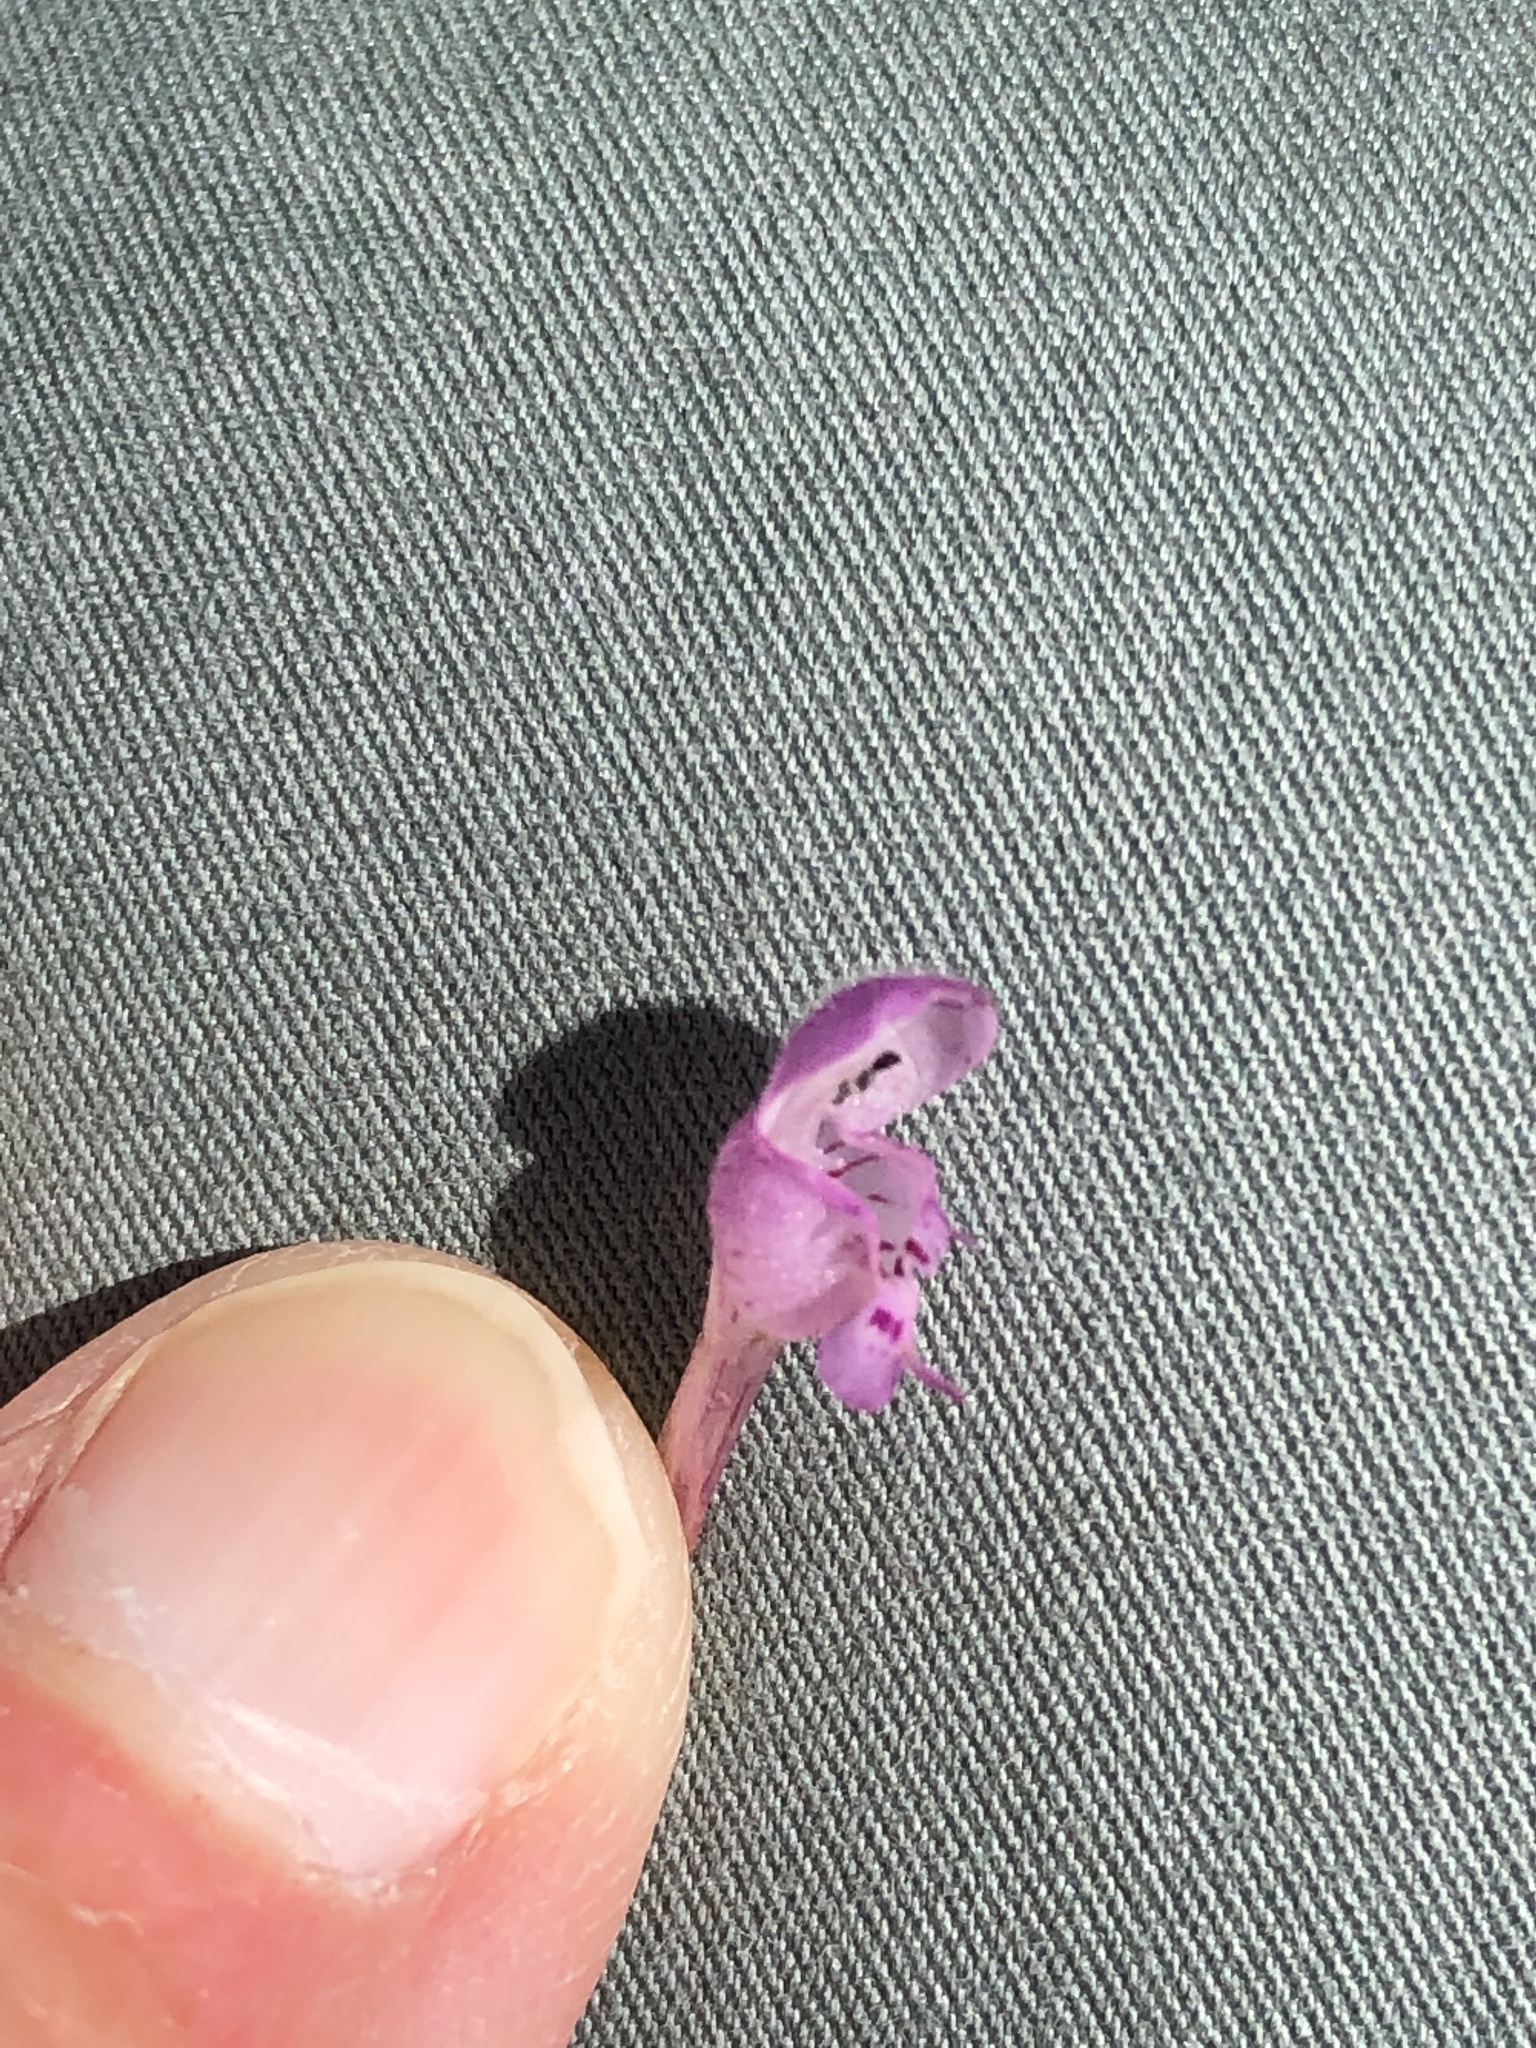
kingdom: Plantae
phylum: Tracheophyta
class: Magnoliopsida
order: Lamiales
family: Lamiaceae
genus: Lamium
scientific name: Lamium purpureum
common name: Red dead-nettle
